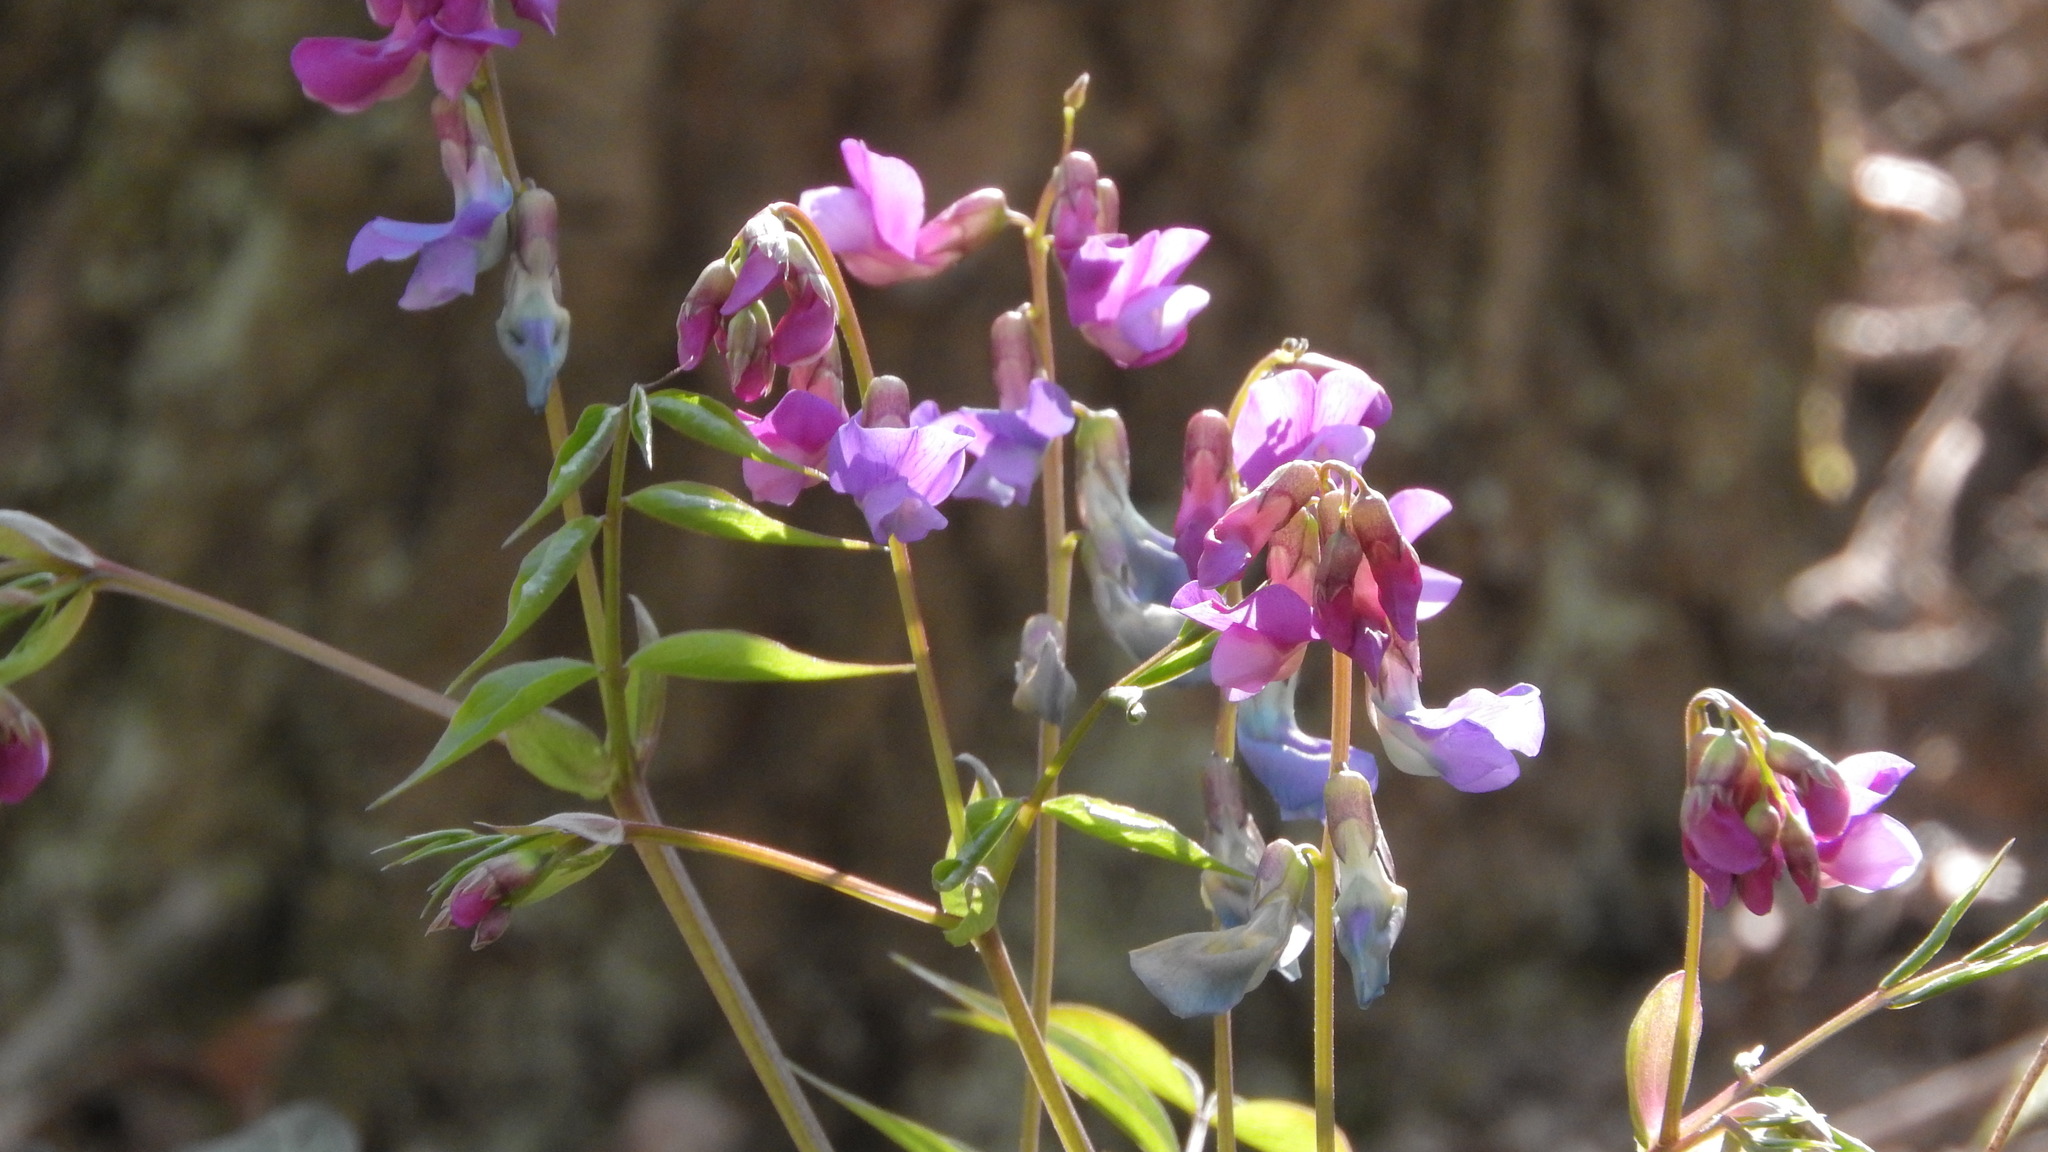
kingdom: Plantae
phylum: Tracheophyta
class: Magnoliopsida
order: Fabales
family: Fabaceae
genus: Lathyrus
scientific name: Lathyrus vernus
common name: Spring pea
